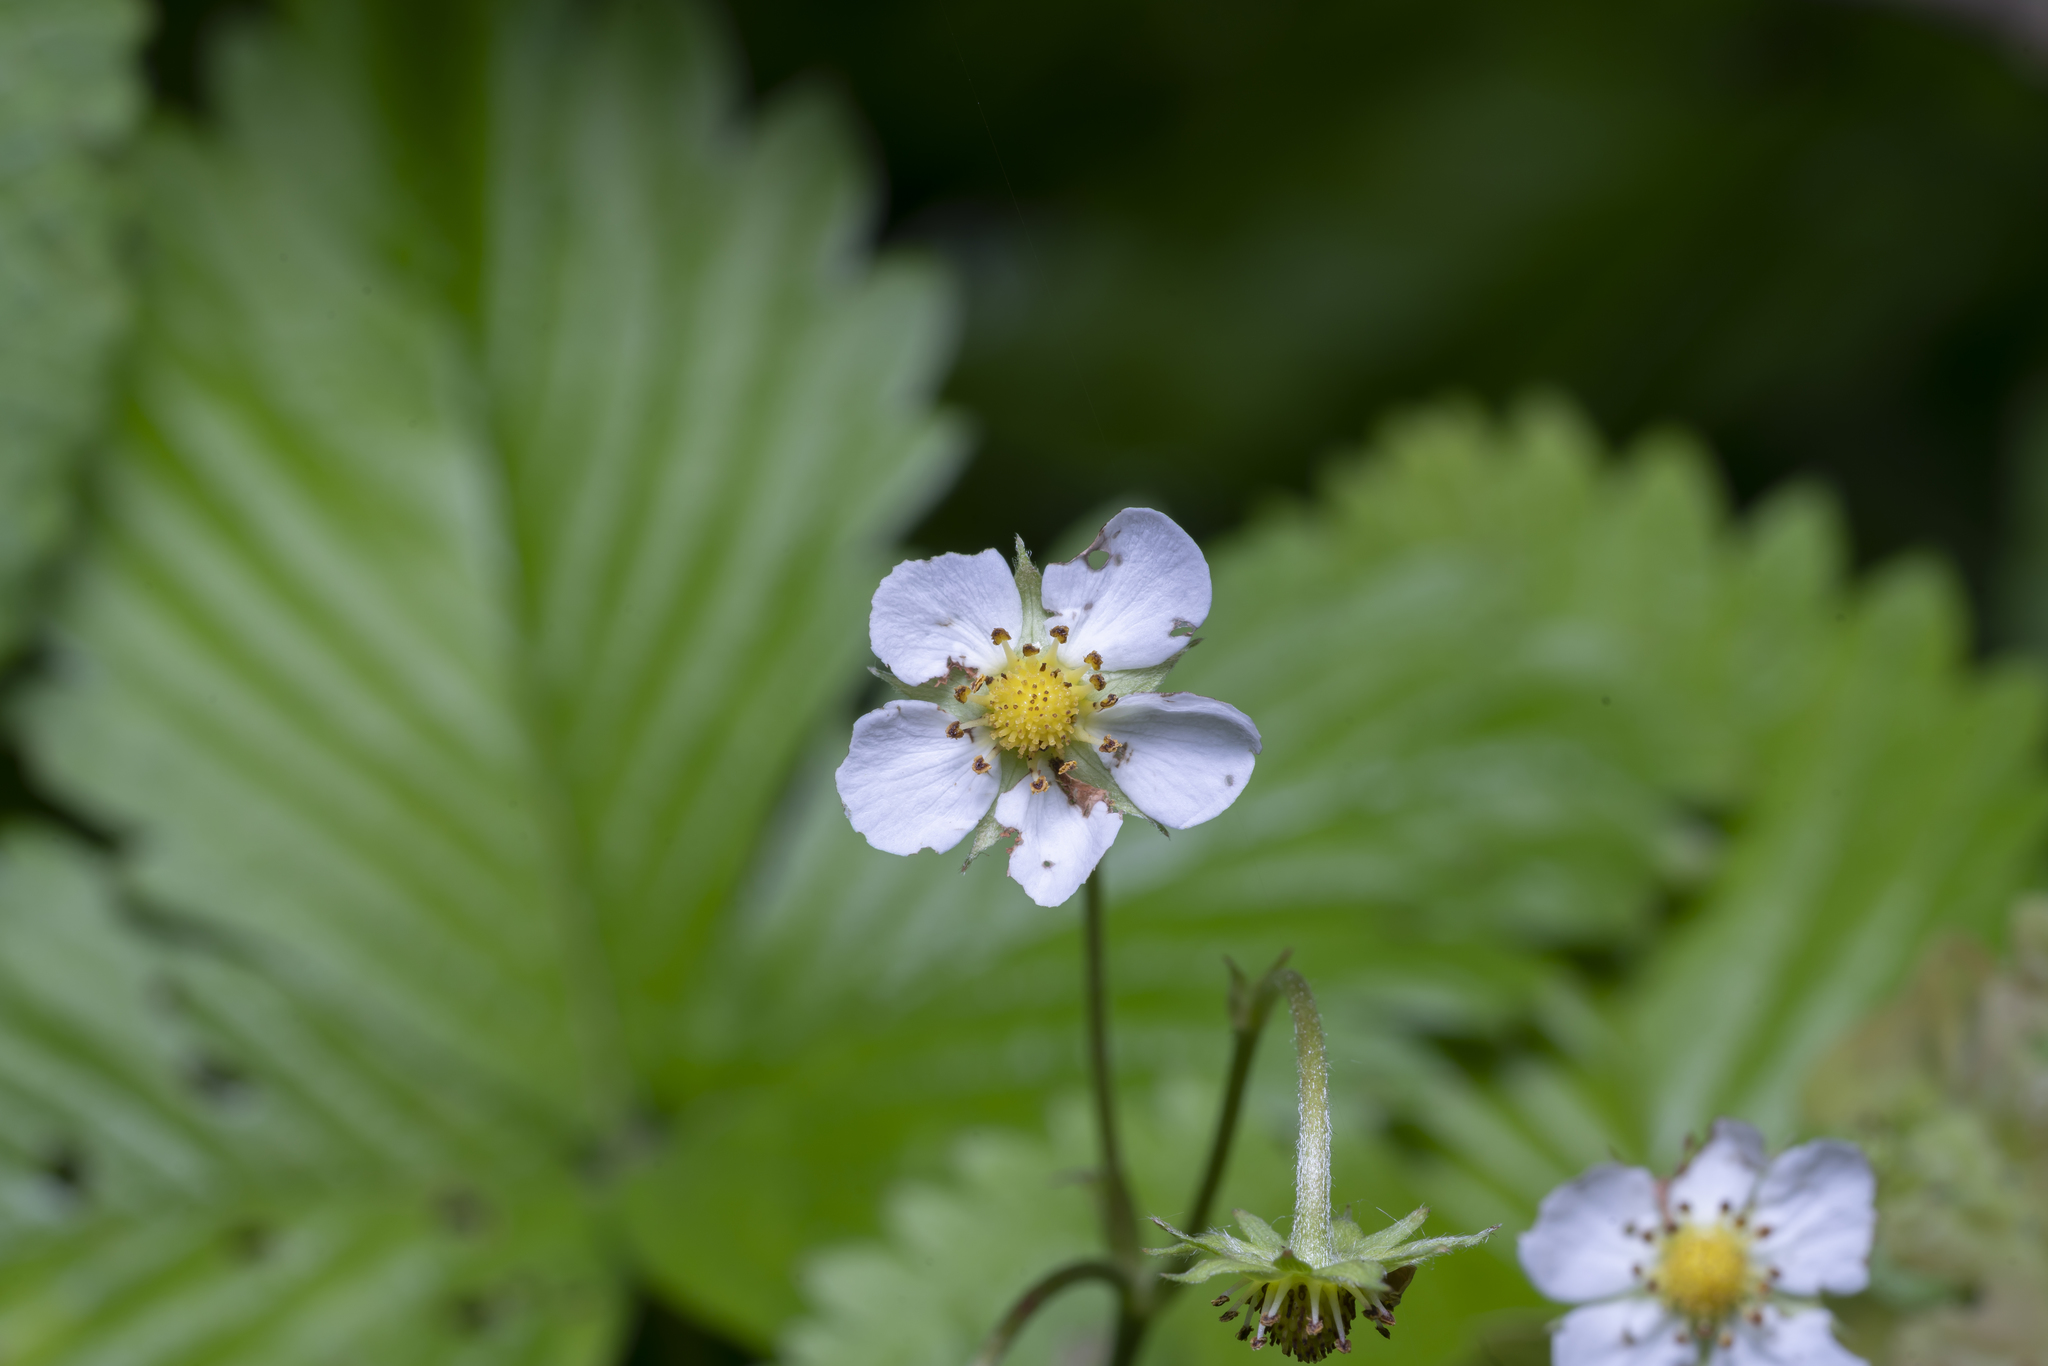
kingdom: Plantae
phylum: Tracheophyta
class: Magnoliopsida
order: Rosales
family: Rosaceae
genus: Fragaria
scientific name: Fragaria vesca
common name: Wild strawberry
